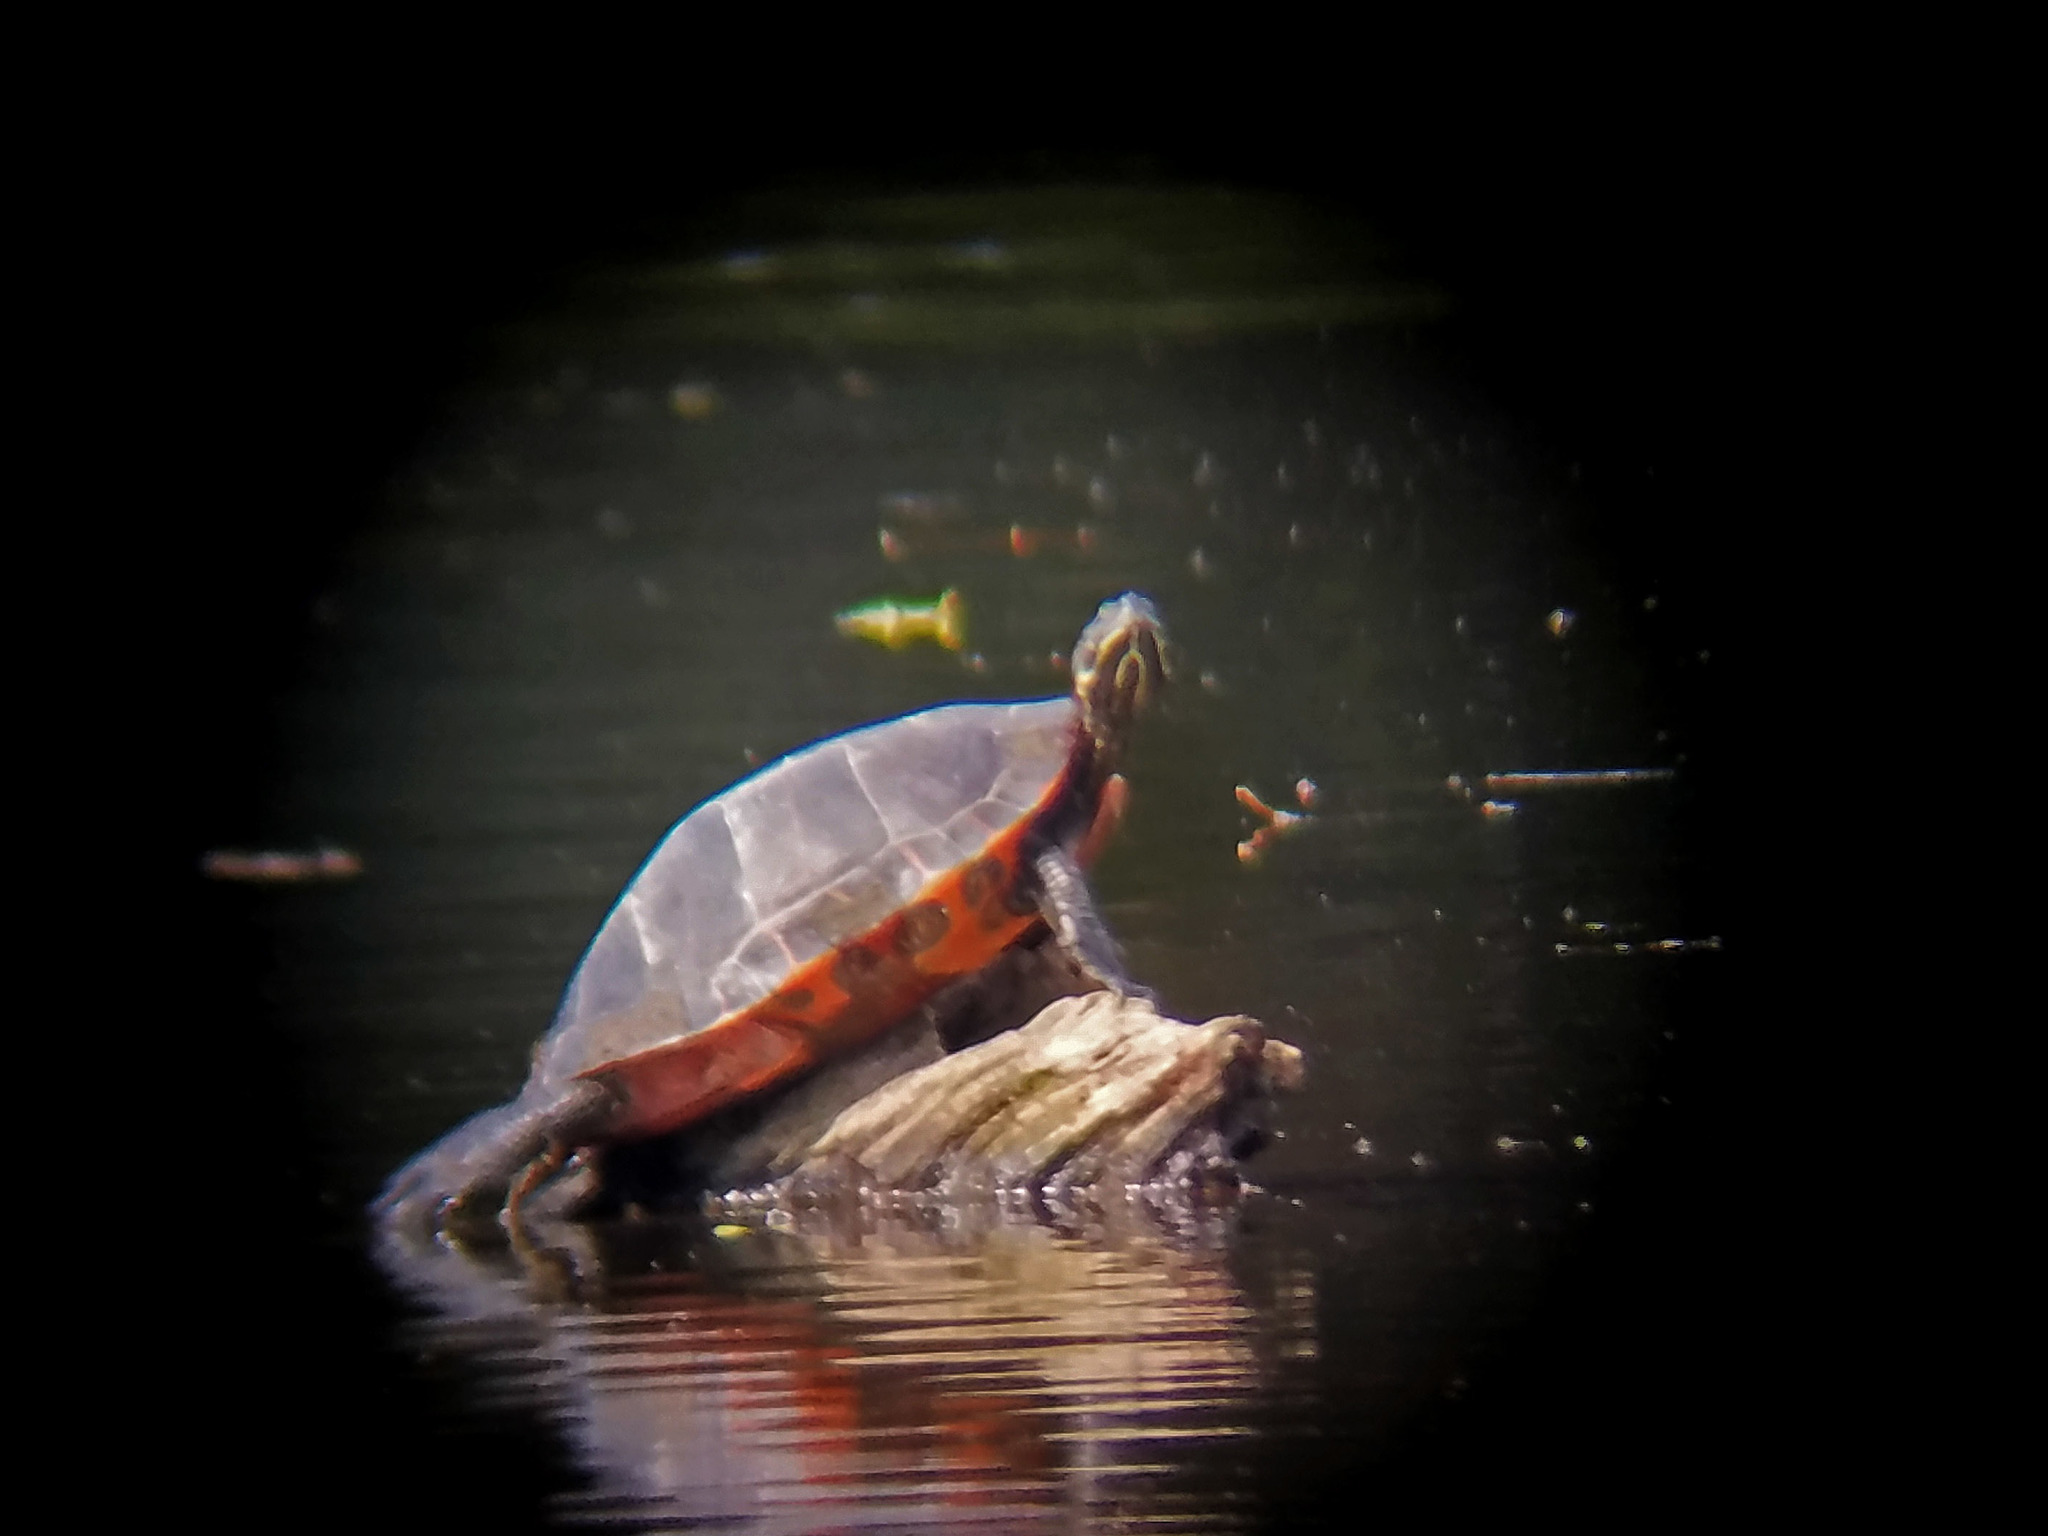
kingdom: Animalia
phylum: Chordata
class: Testudines
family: Emydidae
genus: Pseudemys
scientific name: Pseudemys rubriventris
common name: American red-bellied turtle
